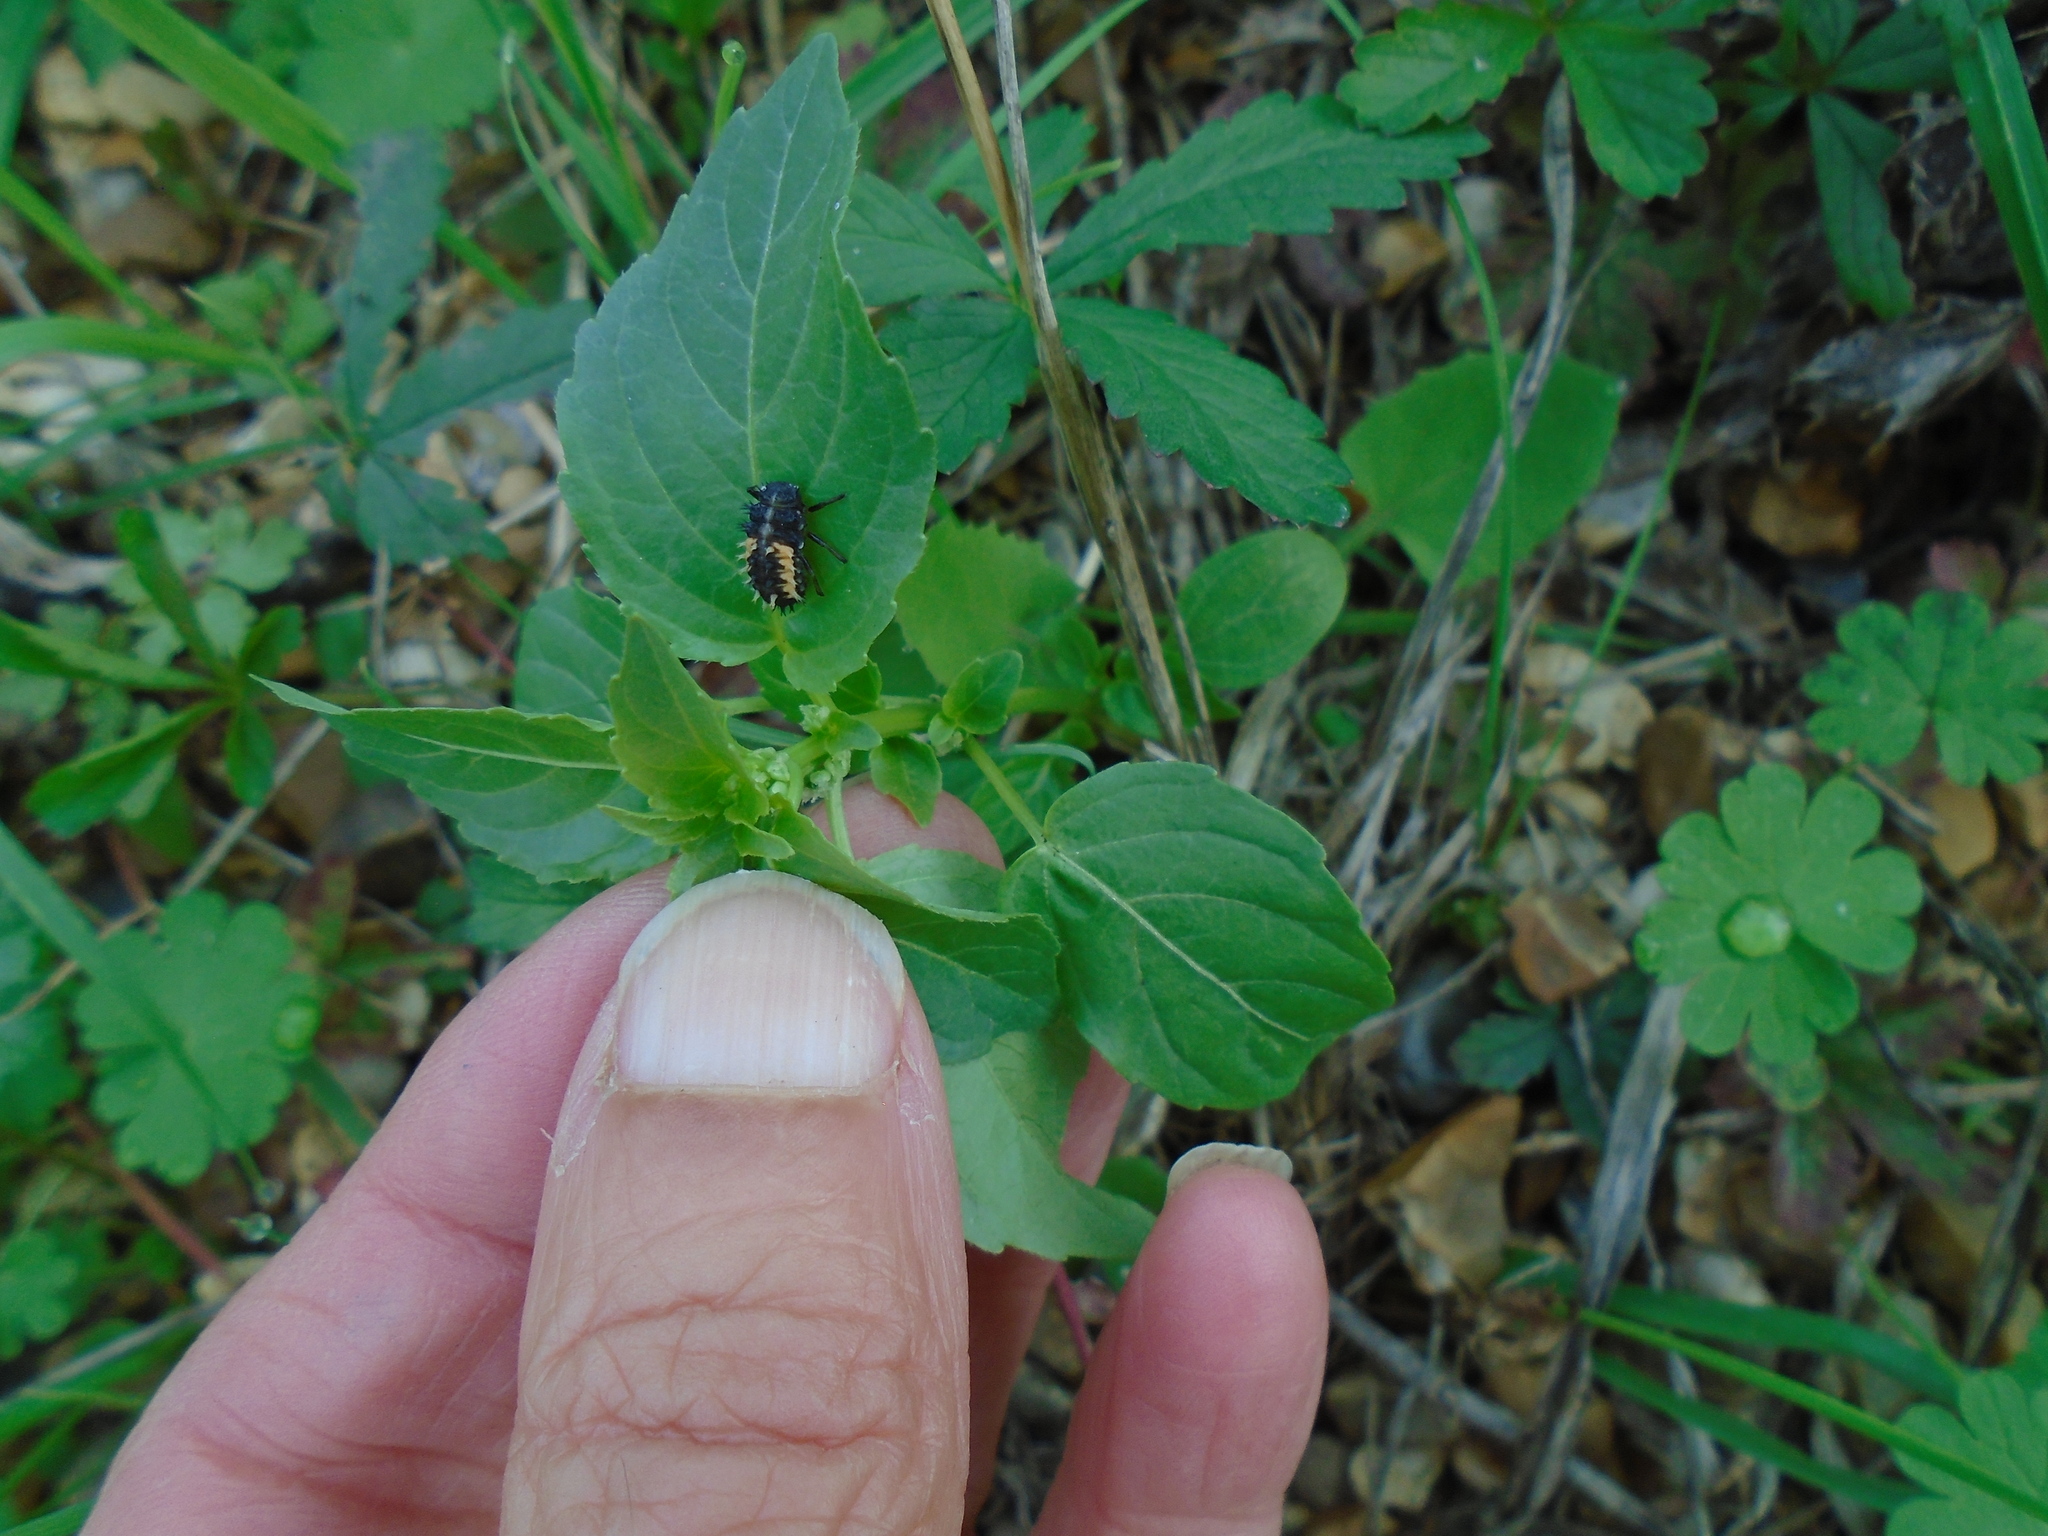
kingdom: Animalia
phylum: Arthropoda
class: Insecta
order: Coleoptera
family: Coccinellidae
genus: Harmonia
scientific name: Harmonia axyridis
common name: Harlequin ladybird
